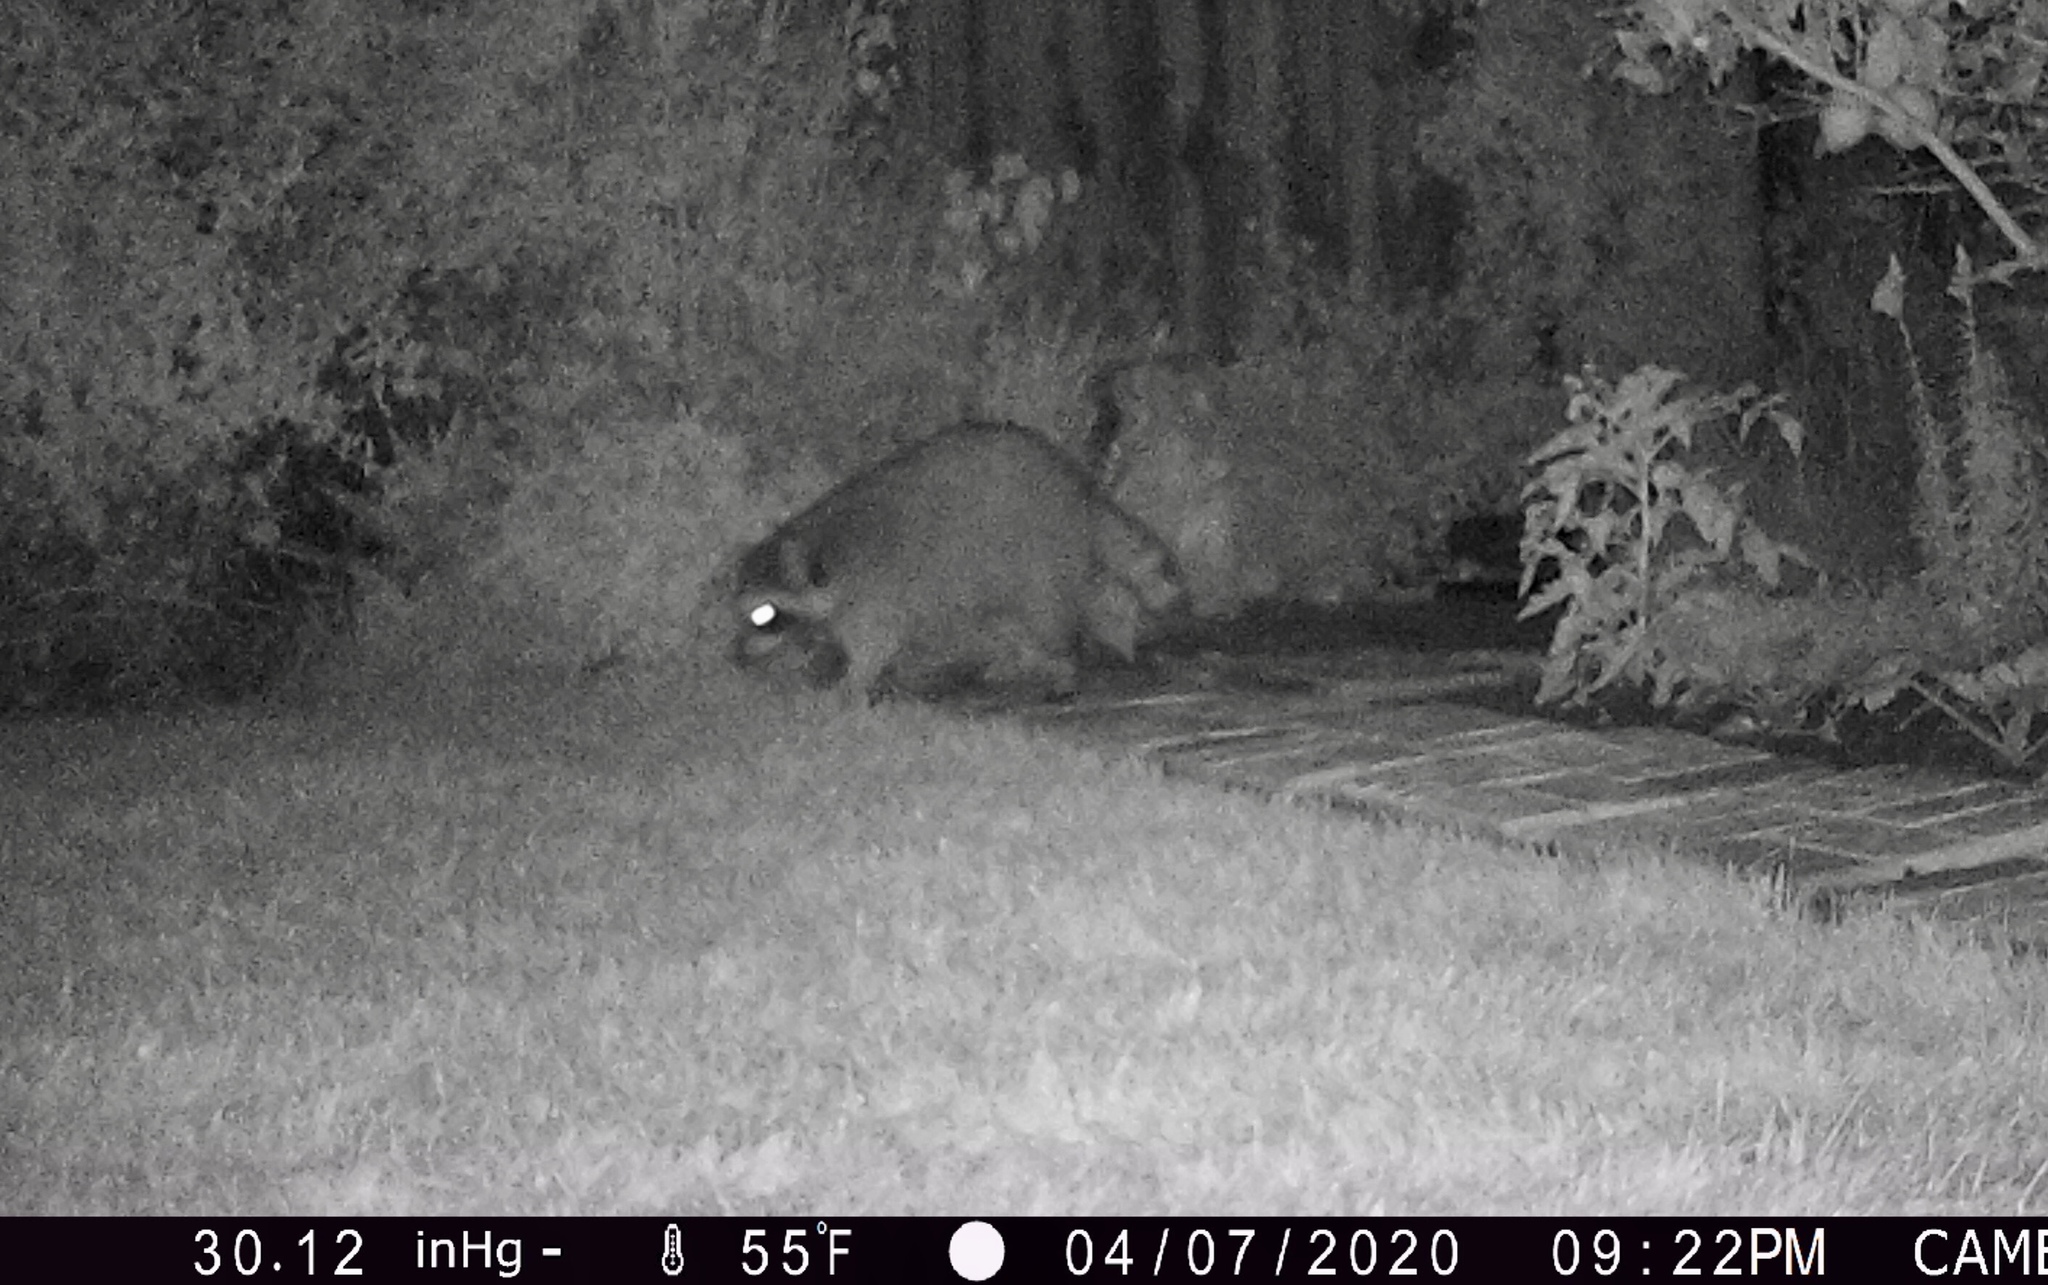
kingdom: Animalia
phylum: Chordata
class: Mammalia
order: Carnivora
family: Procyonidae
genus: Procyon
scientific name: Procyon lotor
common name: Raccoon
